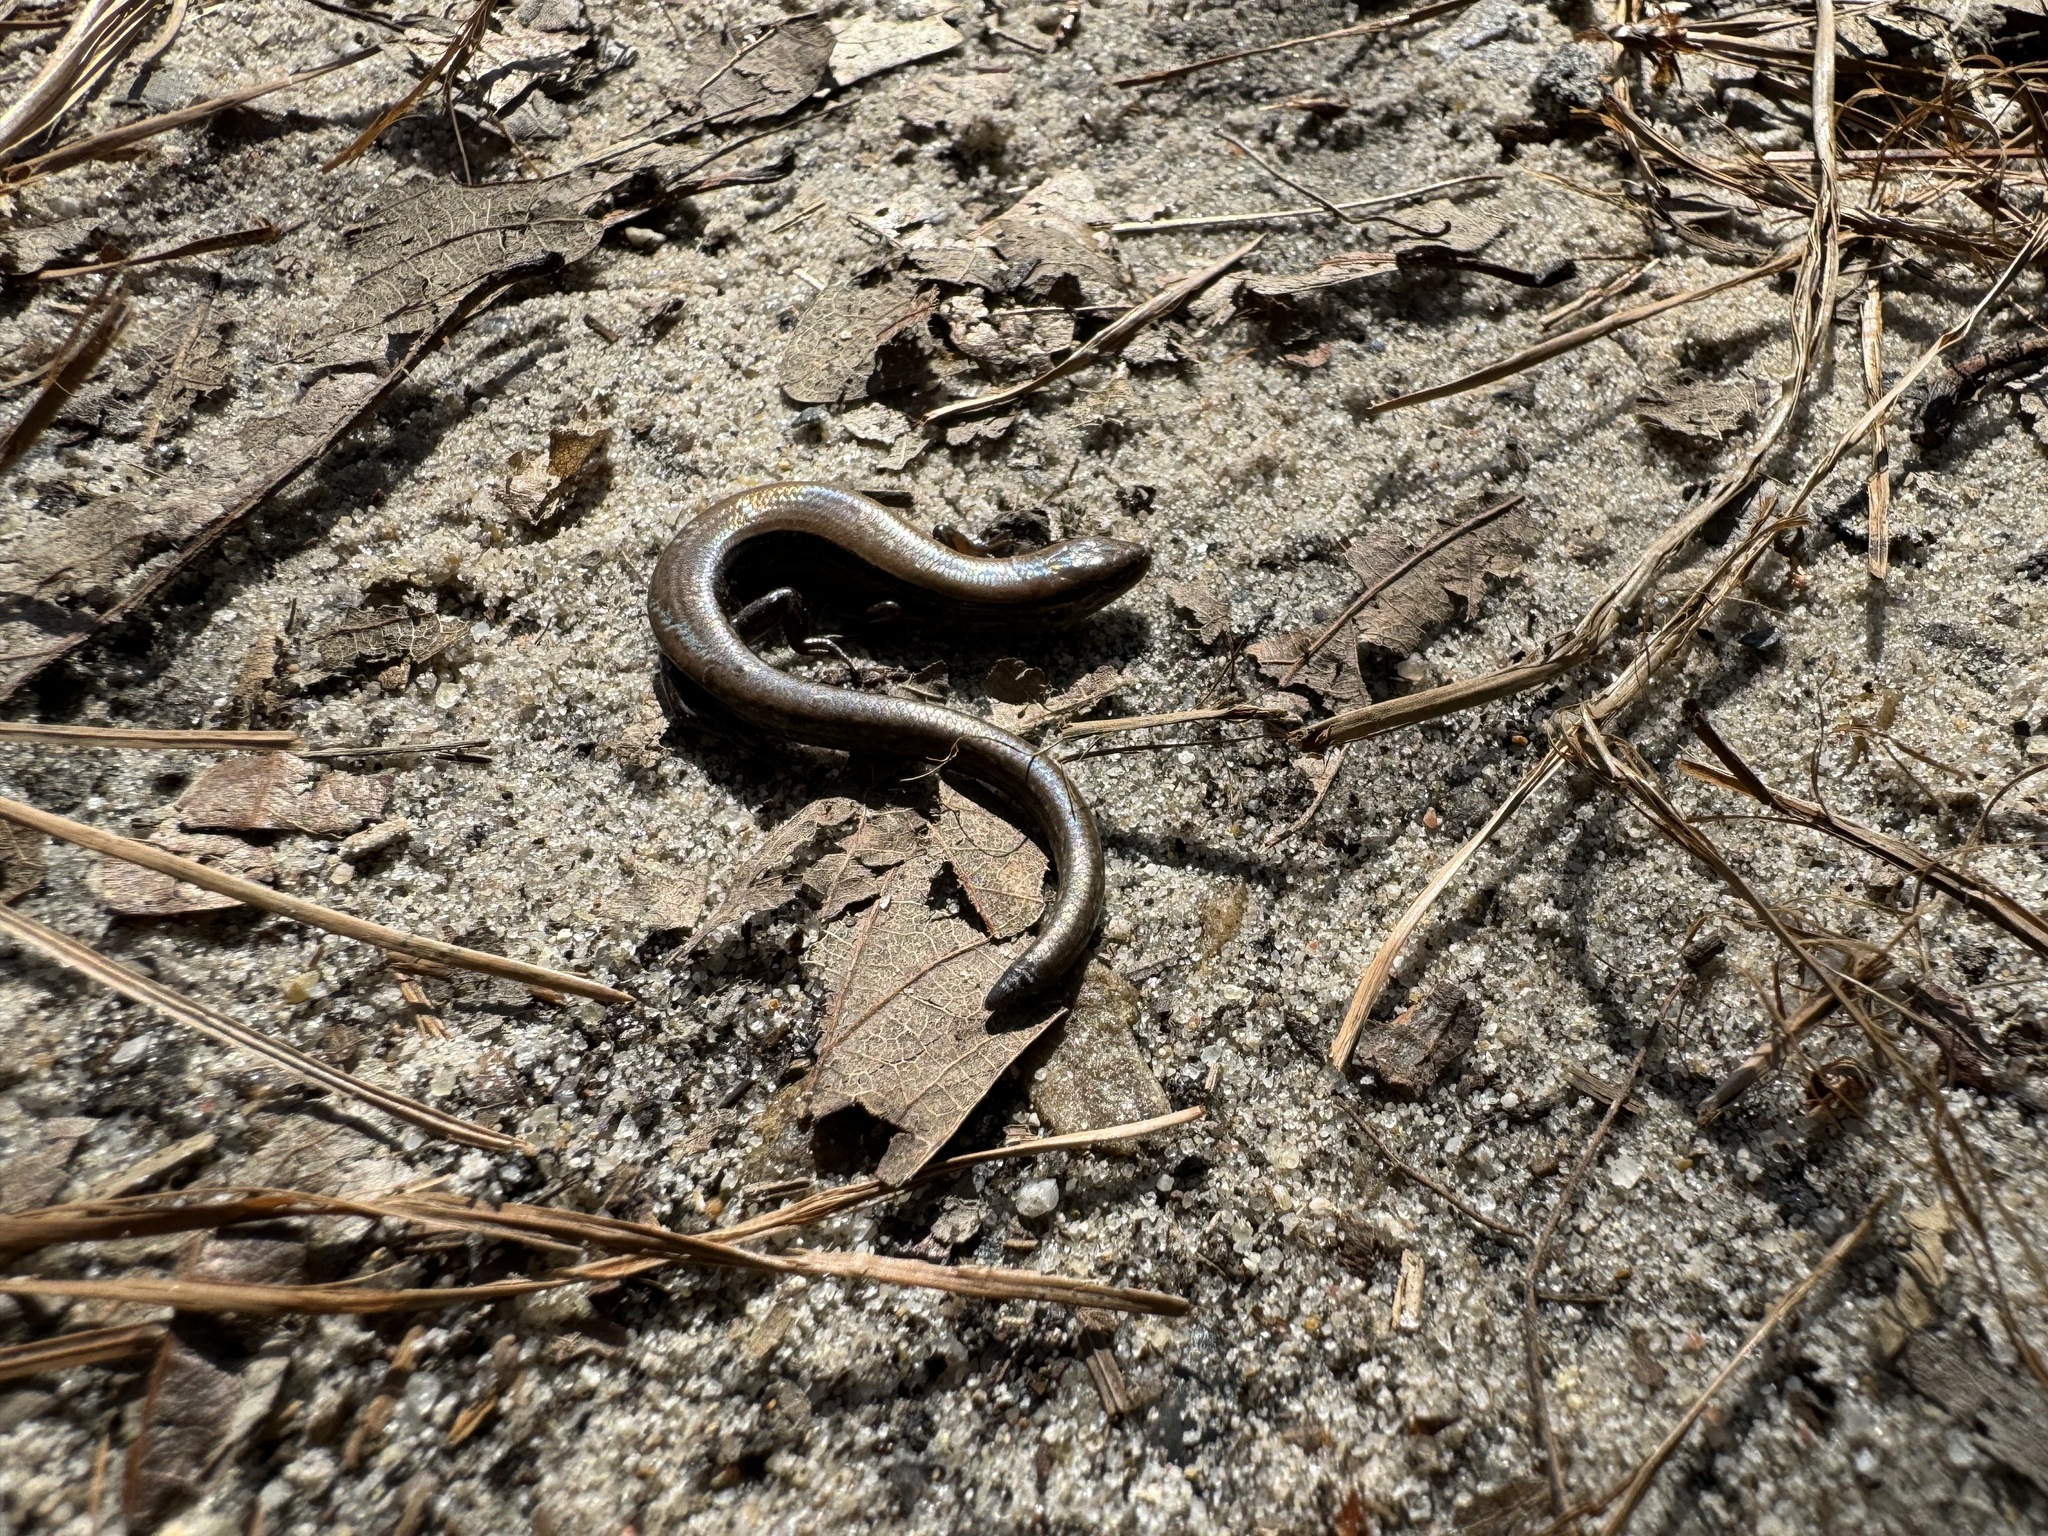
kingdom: Animalia
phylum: Chordata
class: Squamata
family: Scincidae
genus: Scincella
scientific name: Scincella lateralis
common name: Ground skink
